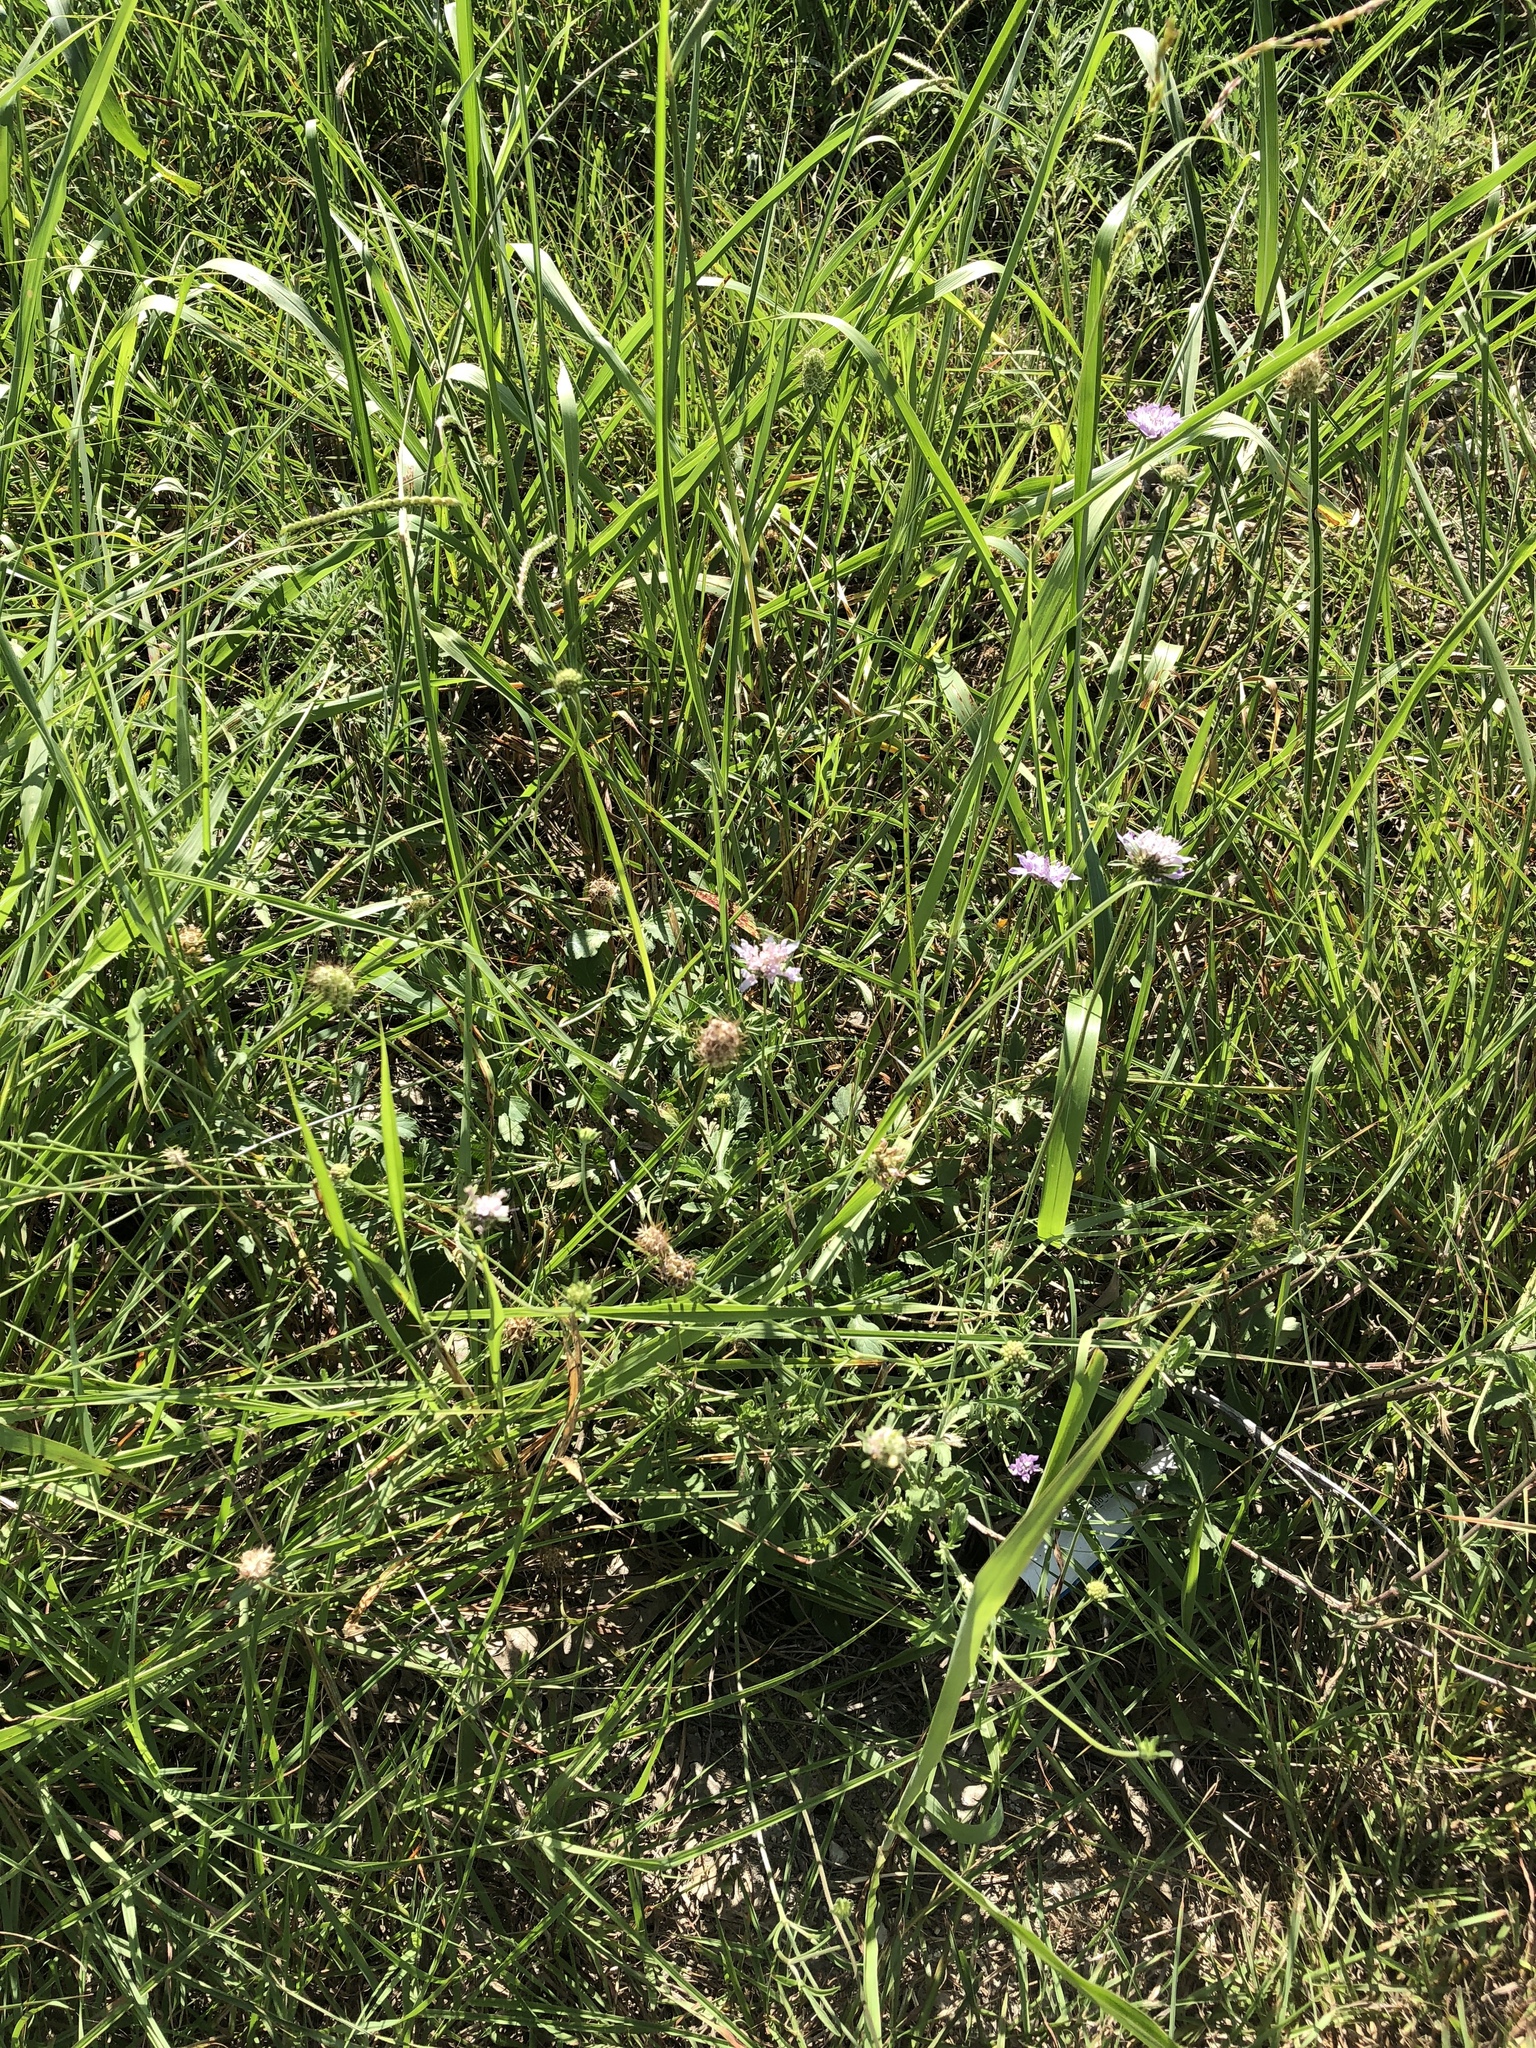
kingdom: Plantae
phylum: Tracheophyta
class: Magnoliopsida
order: Dipsacales
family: Caprifoliaceae
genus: Sixalix
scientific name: Sixalix atropurpurea
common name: Sweet scabious
